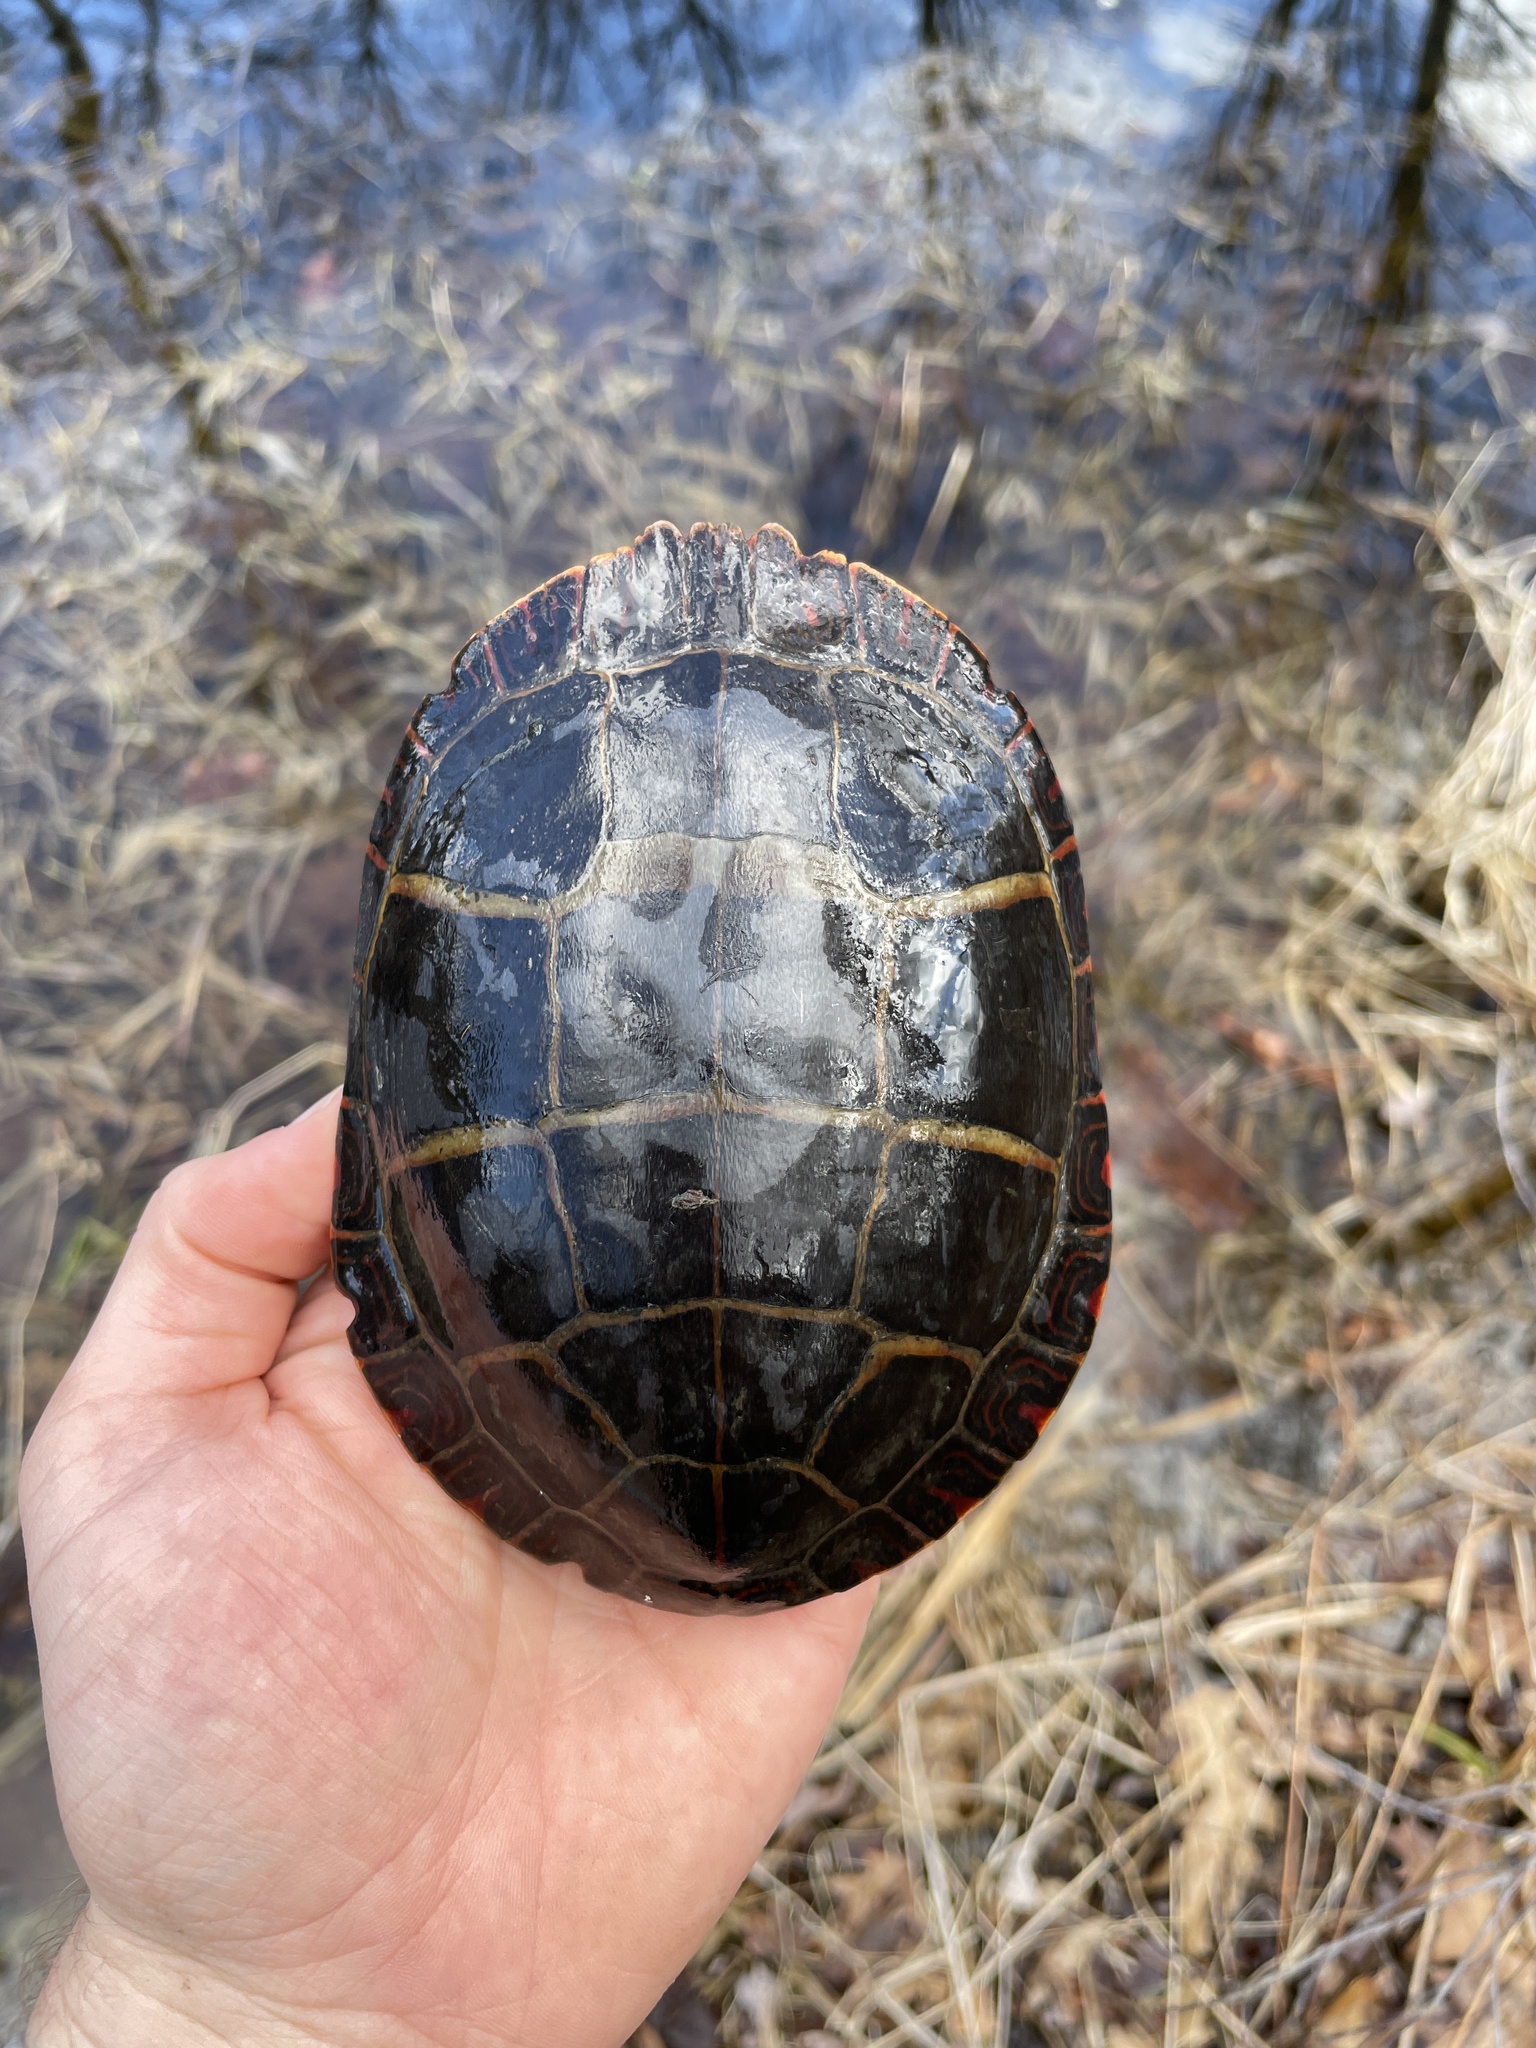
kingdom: Animalia
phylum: Chordata
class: Testudines
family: Emydidae
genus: Chrysemys
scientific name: Chrysemys picta
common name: Painted turtle
